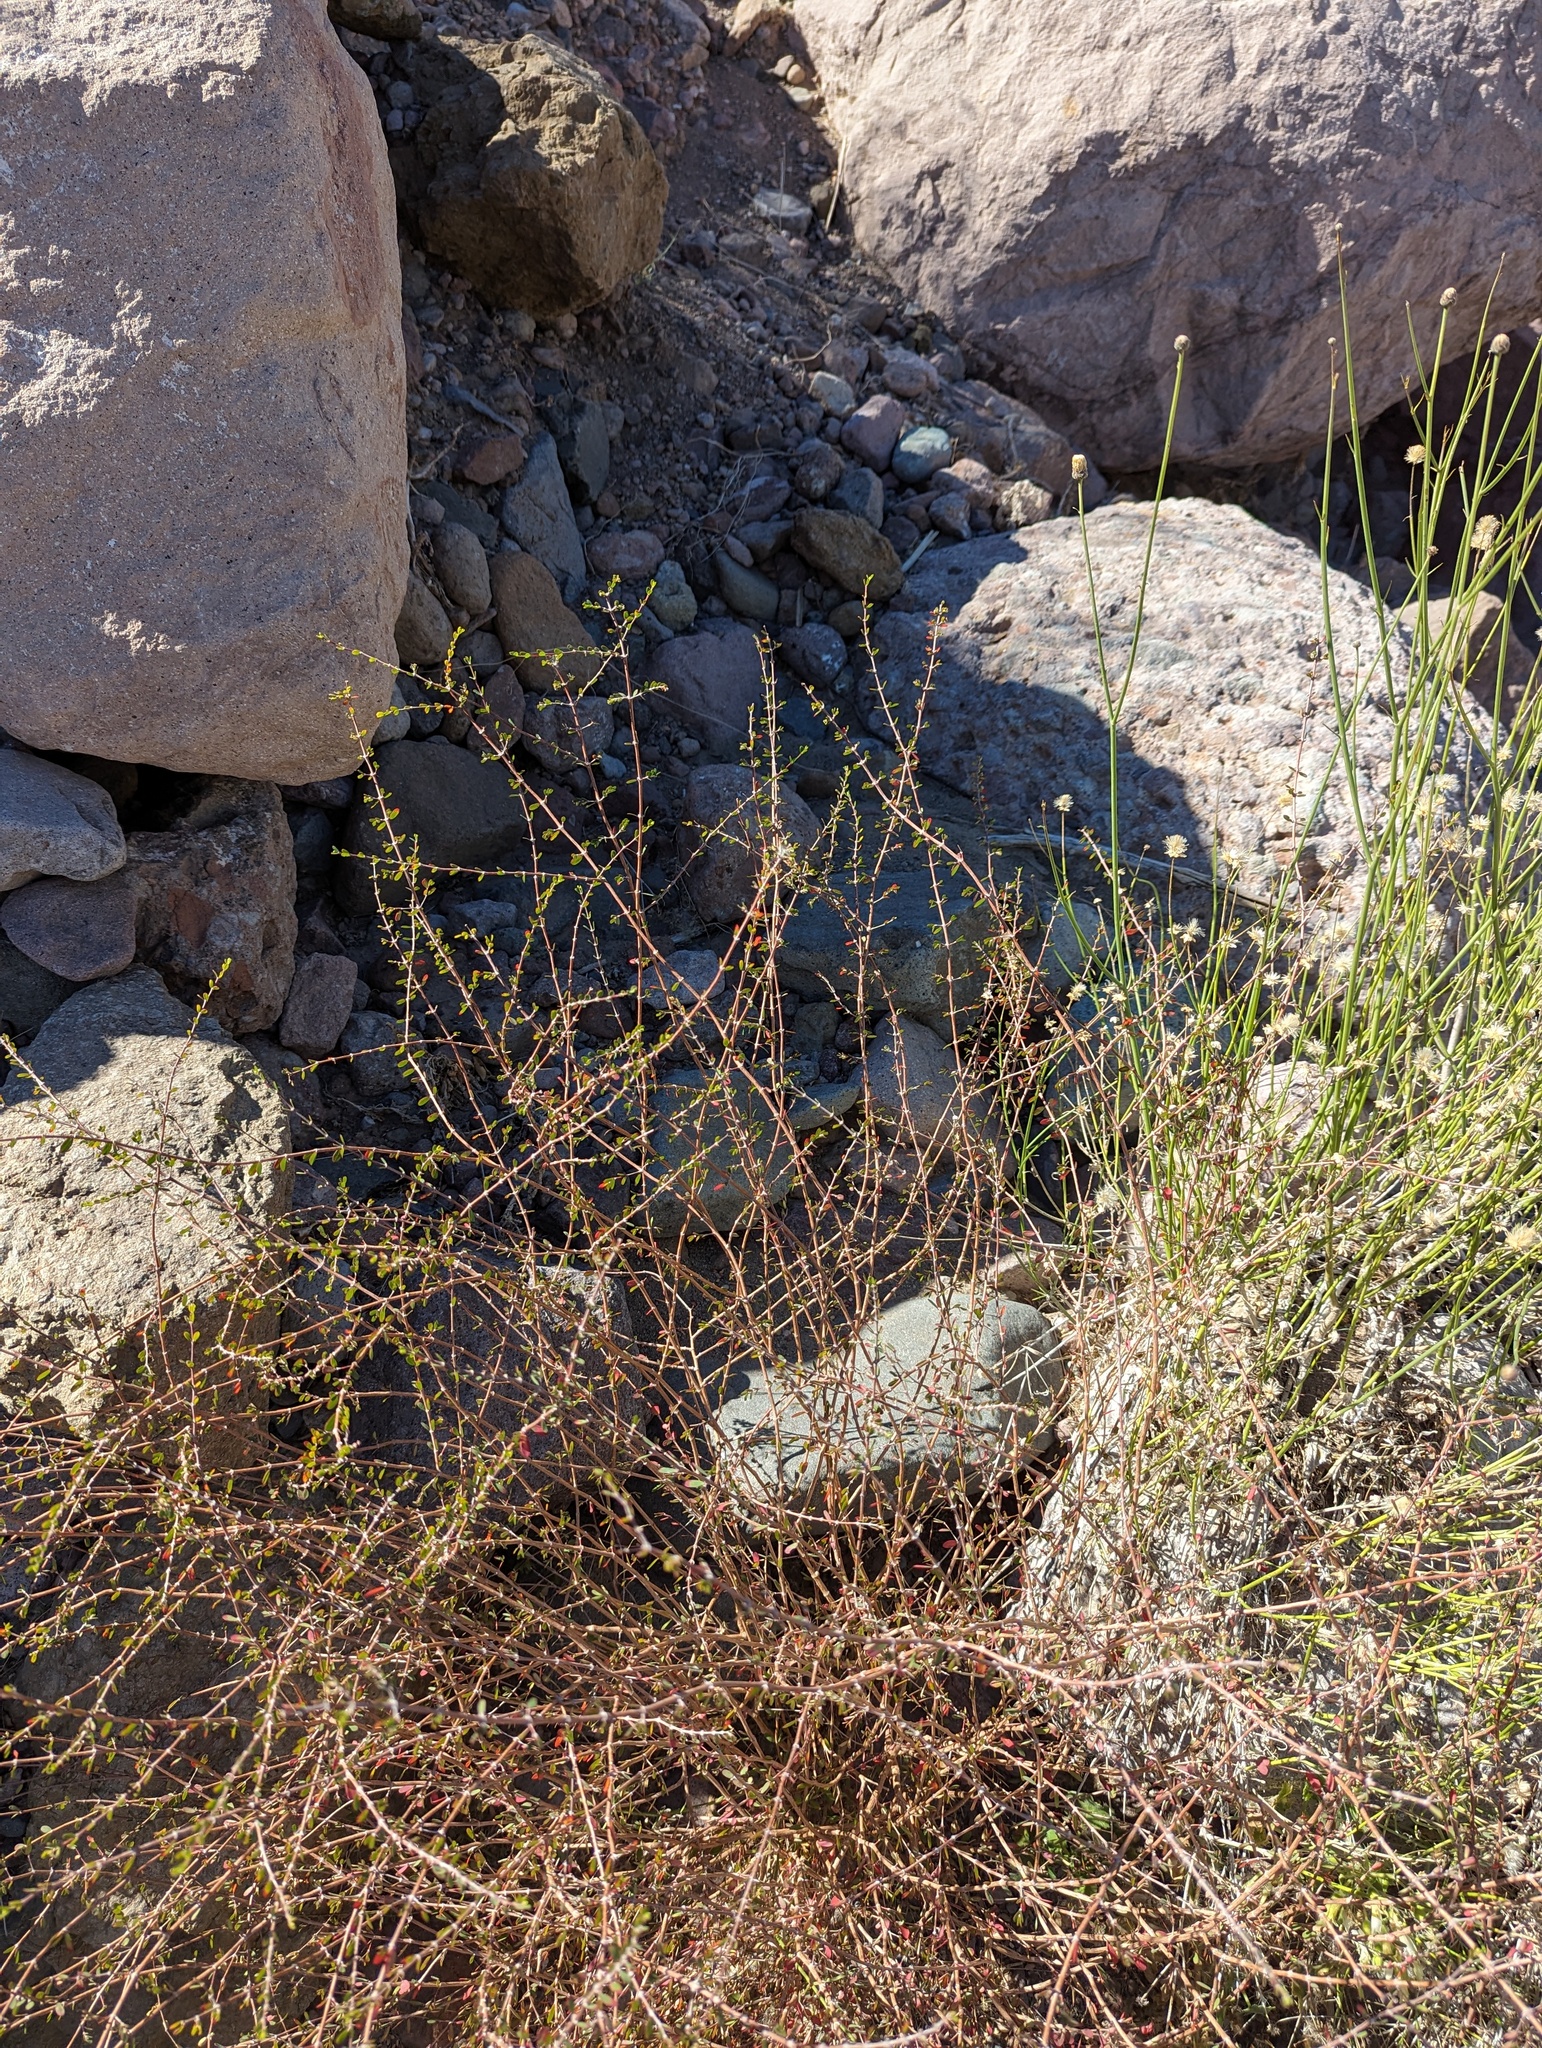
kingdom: Plantae
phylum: Tracheophyta
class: Magnoliopsida
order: Malpighiales
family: Euphorbiaceae
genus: Euphorbia
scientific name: Euphorbia magdalenae
